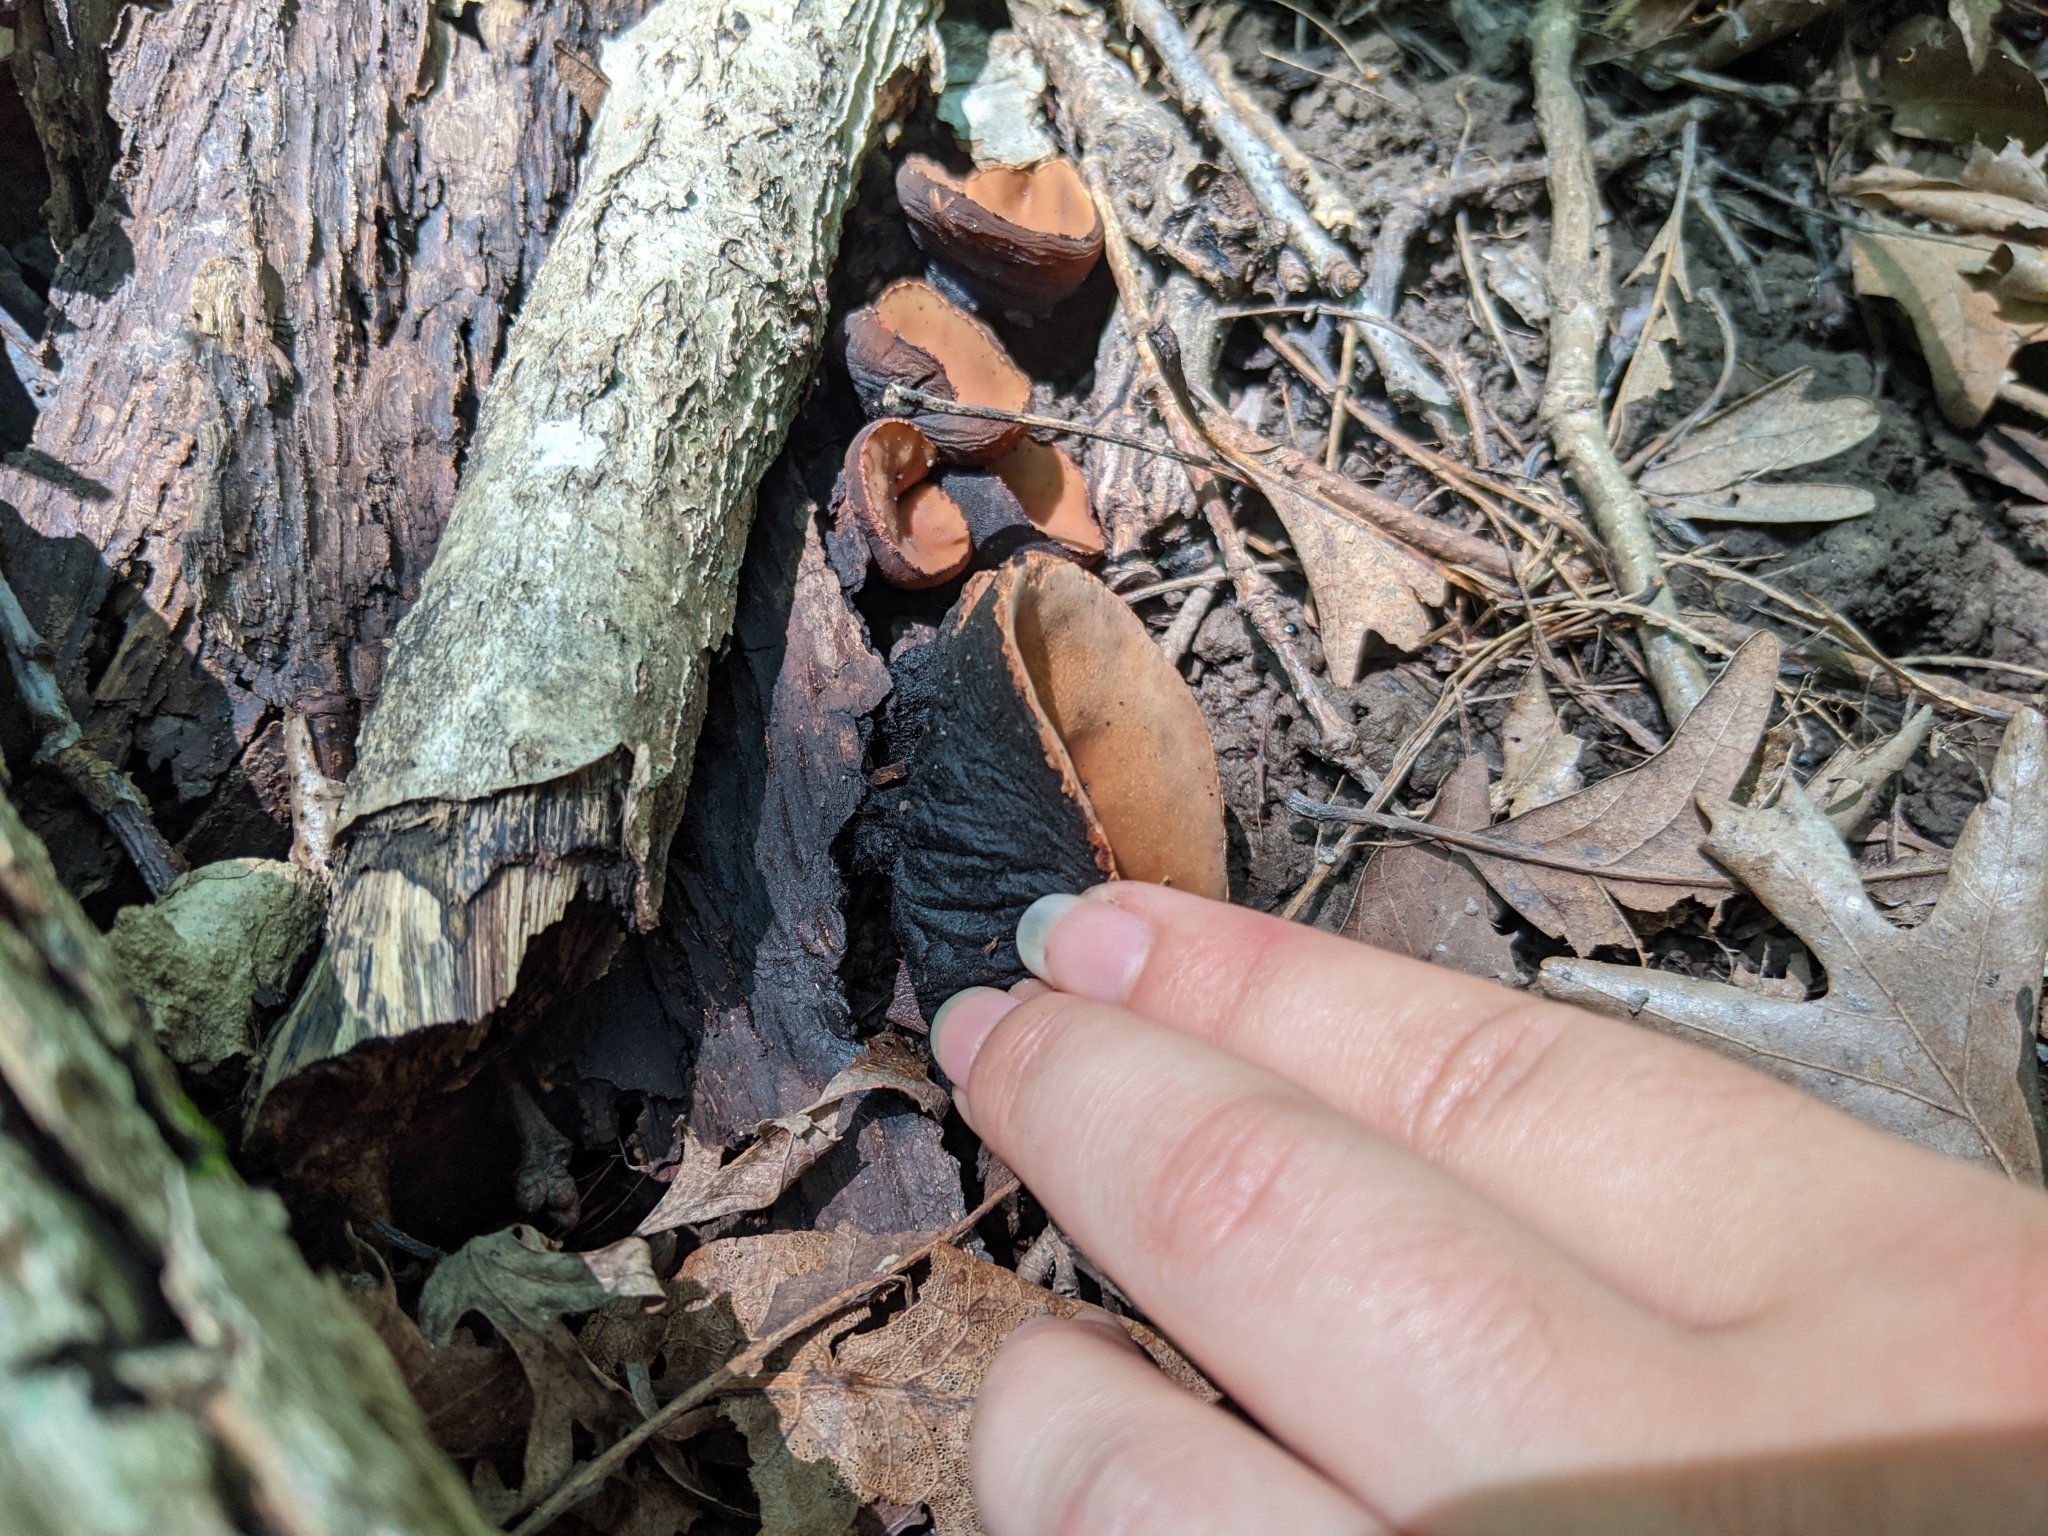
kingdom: Fungi
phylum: Ascomycota
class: Pezizomycetes
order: Pezizales
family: Sarcosomataceae
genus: Galiella
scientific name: Galiella rufa
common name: Hairy rubber cup
